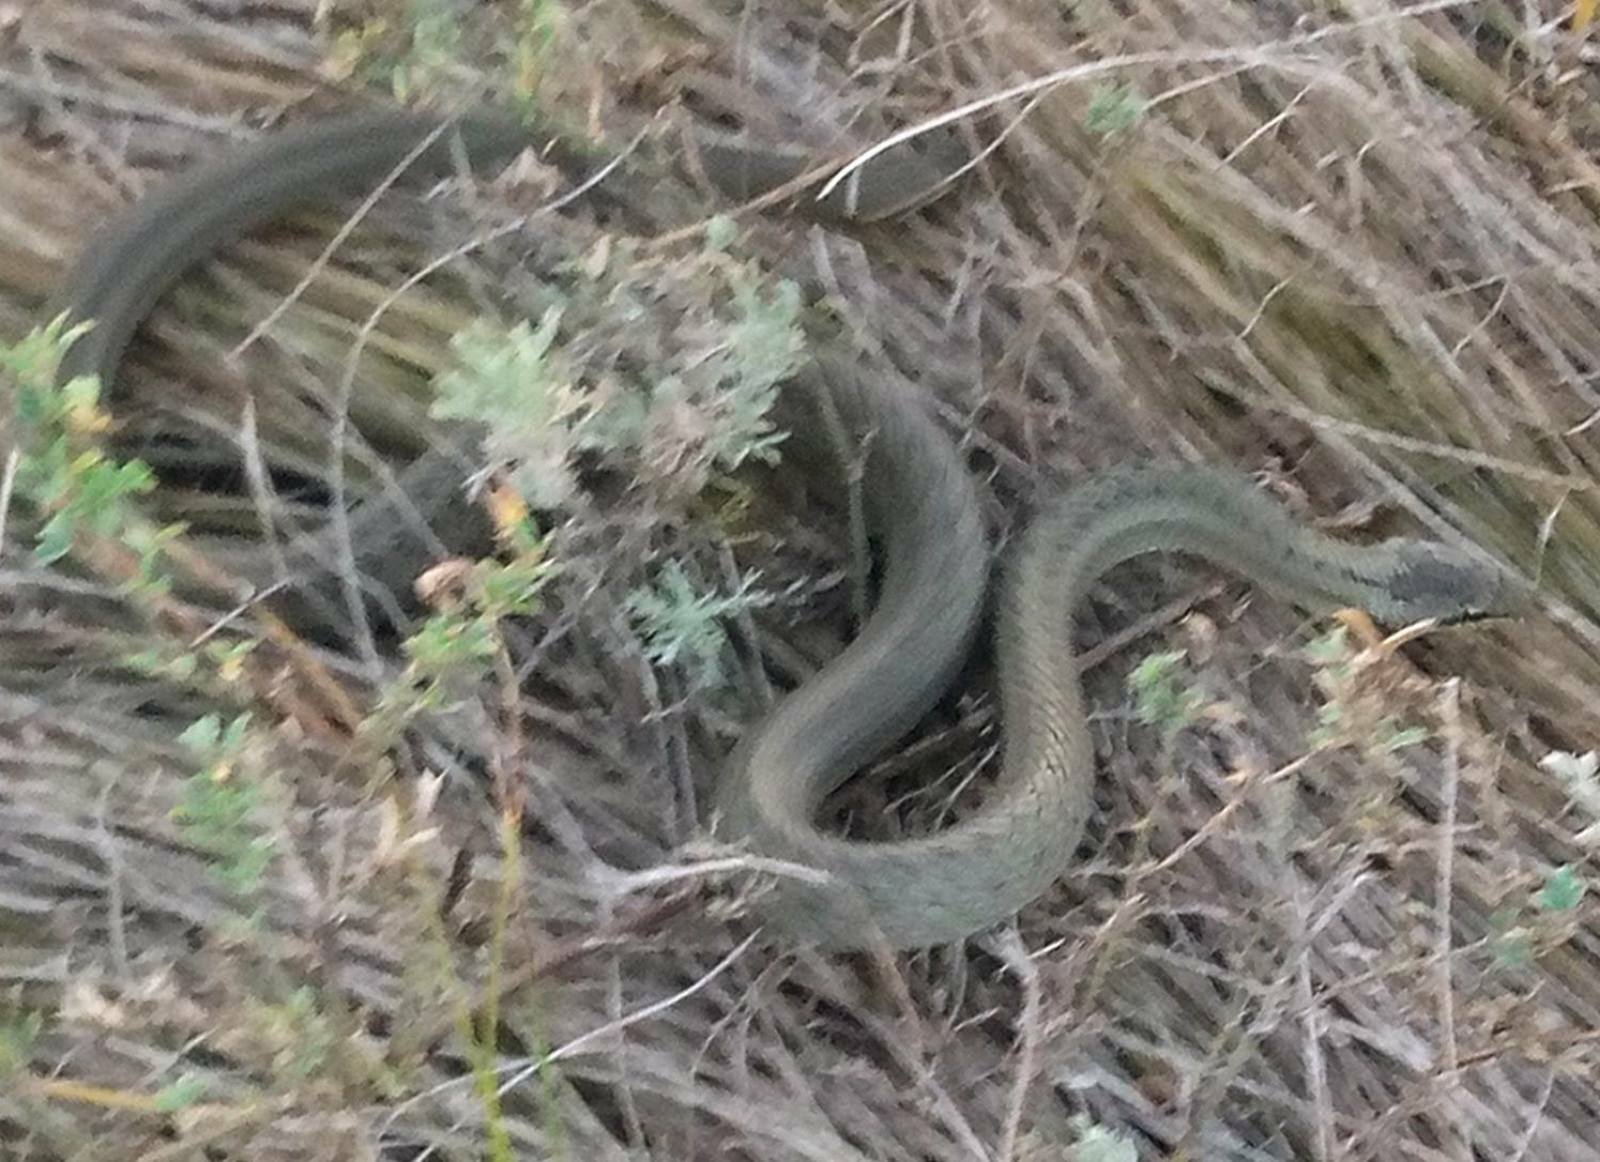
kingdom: Animalia
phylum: Chordata
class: Squamata
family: Colubridae
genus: Coronella
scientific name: Coronella austriaca
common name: Smooth snake
